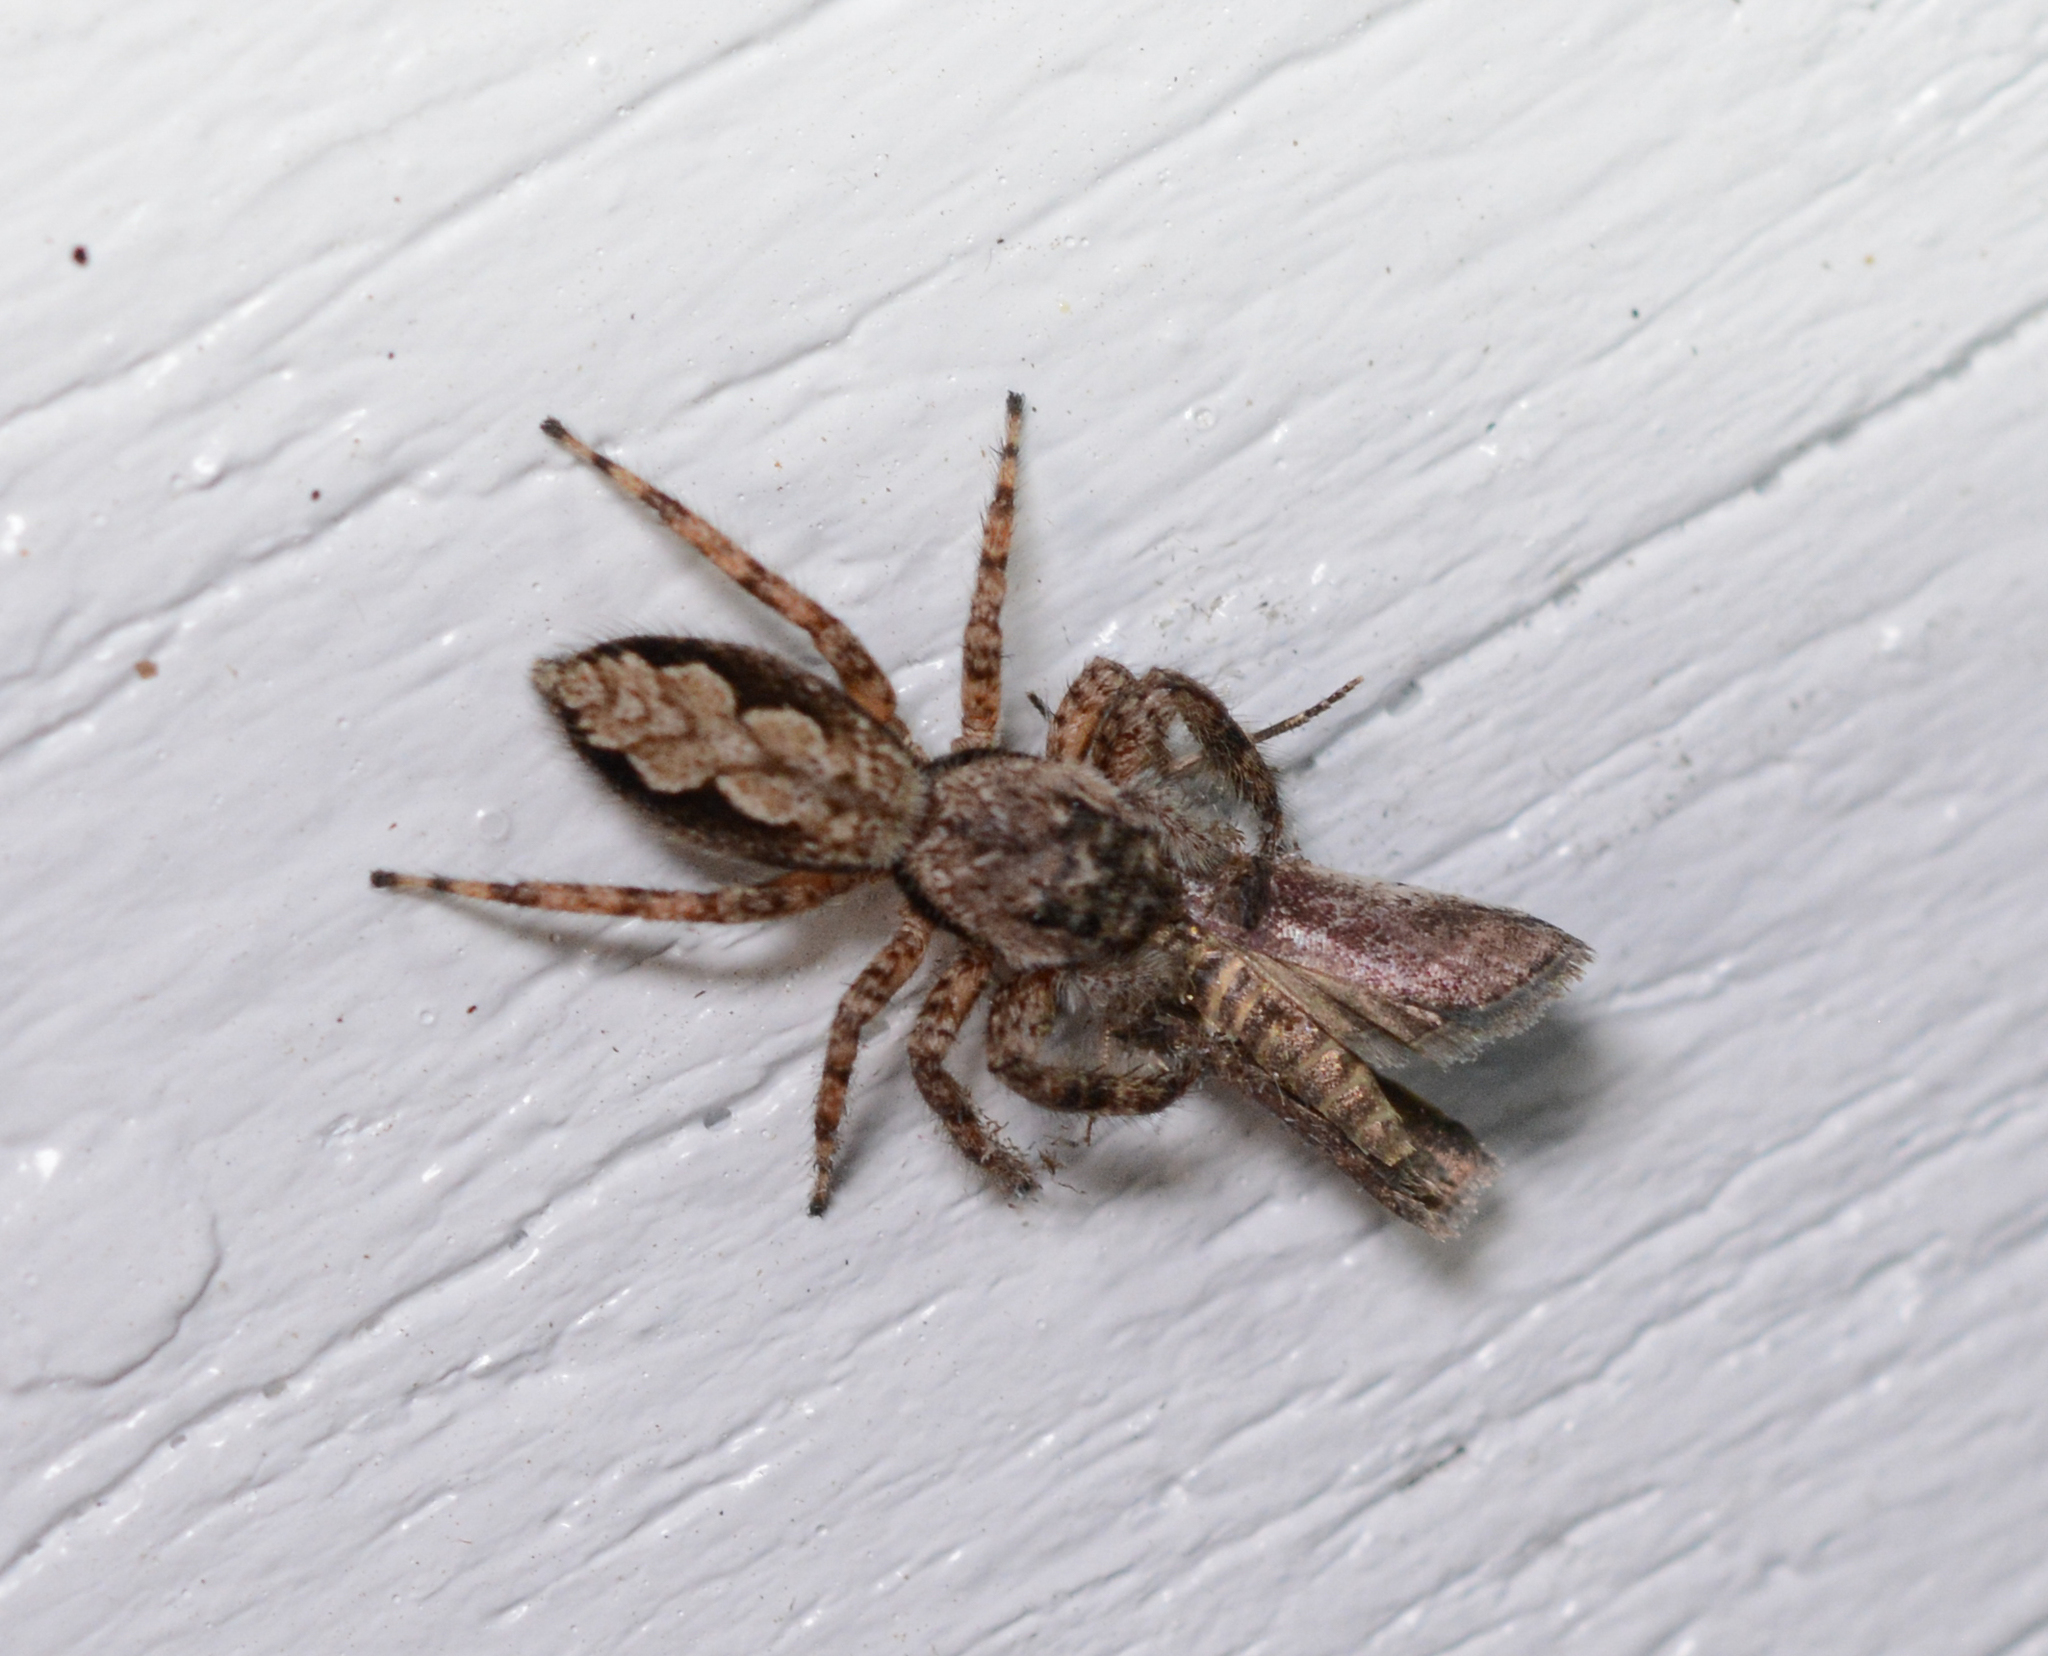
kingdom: Animalia
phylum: Arthropoda
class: Arachnida
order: Araneae
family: Salticidae
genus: Platycryptus
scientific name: Platycryptus undatus
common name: Tan jumping spider
